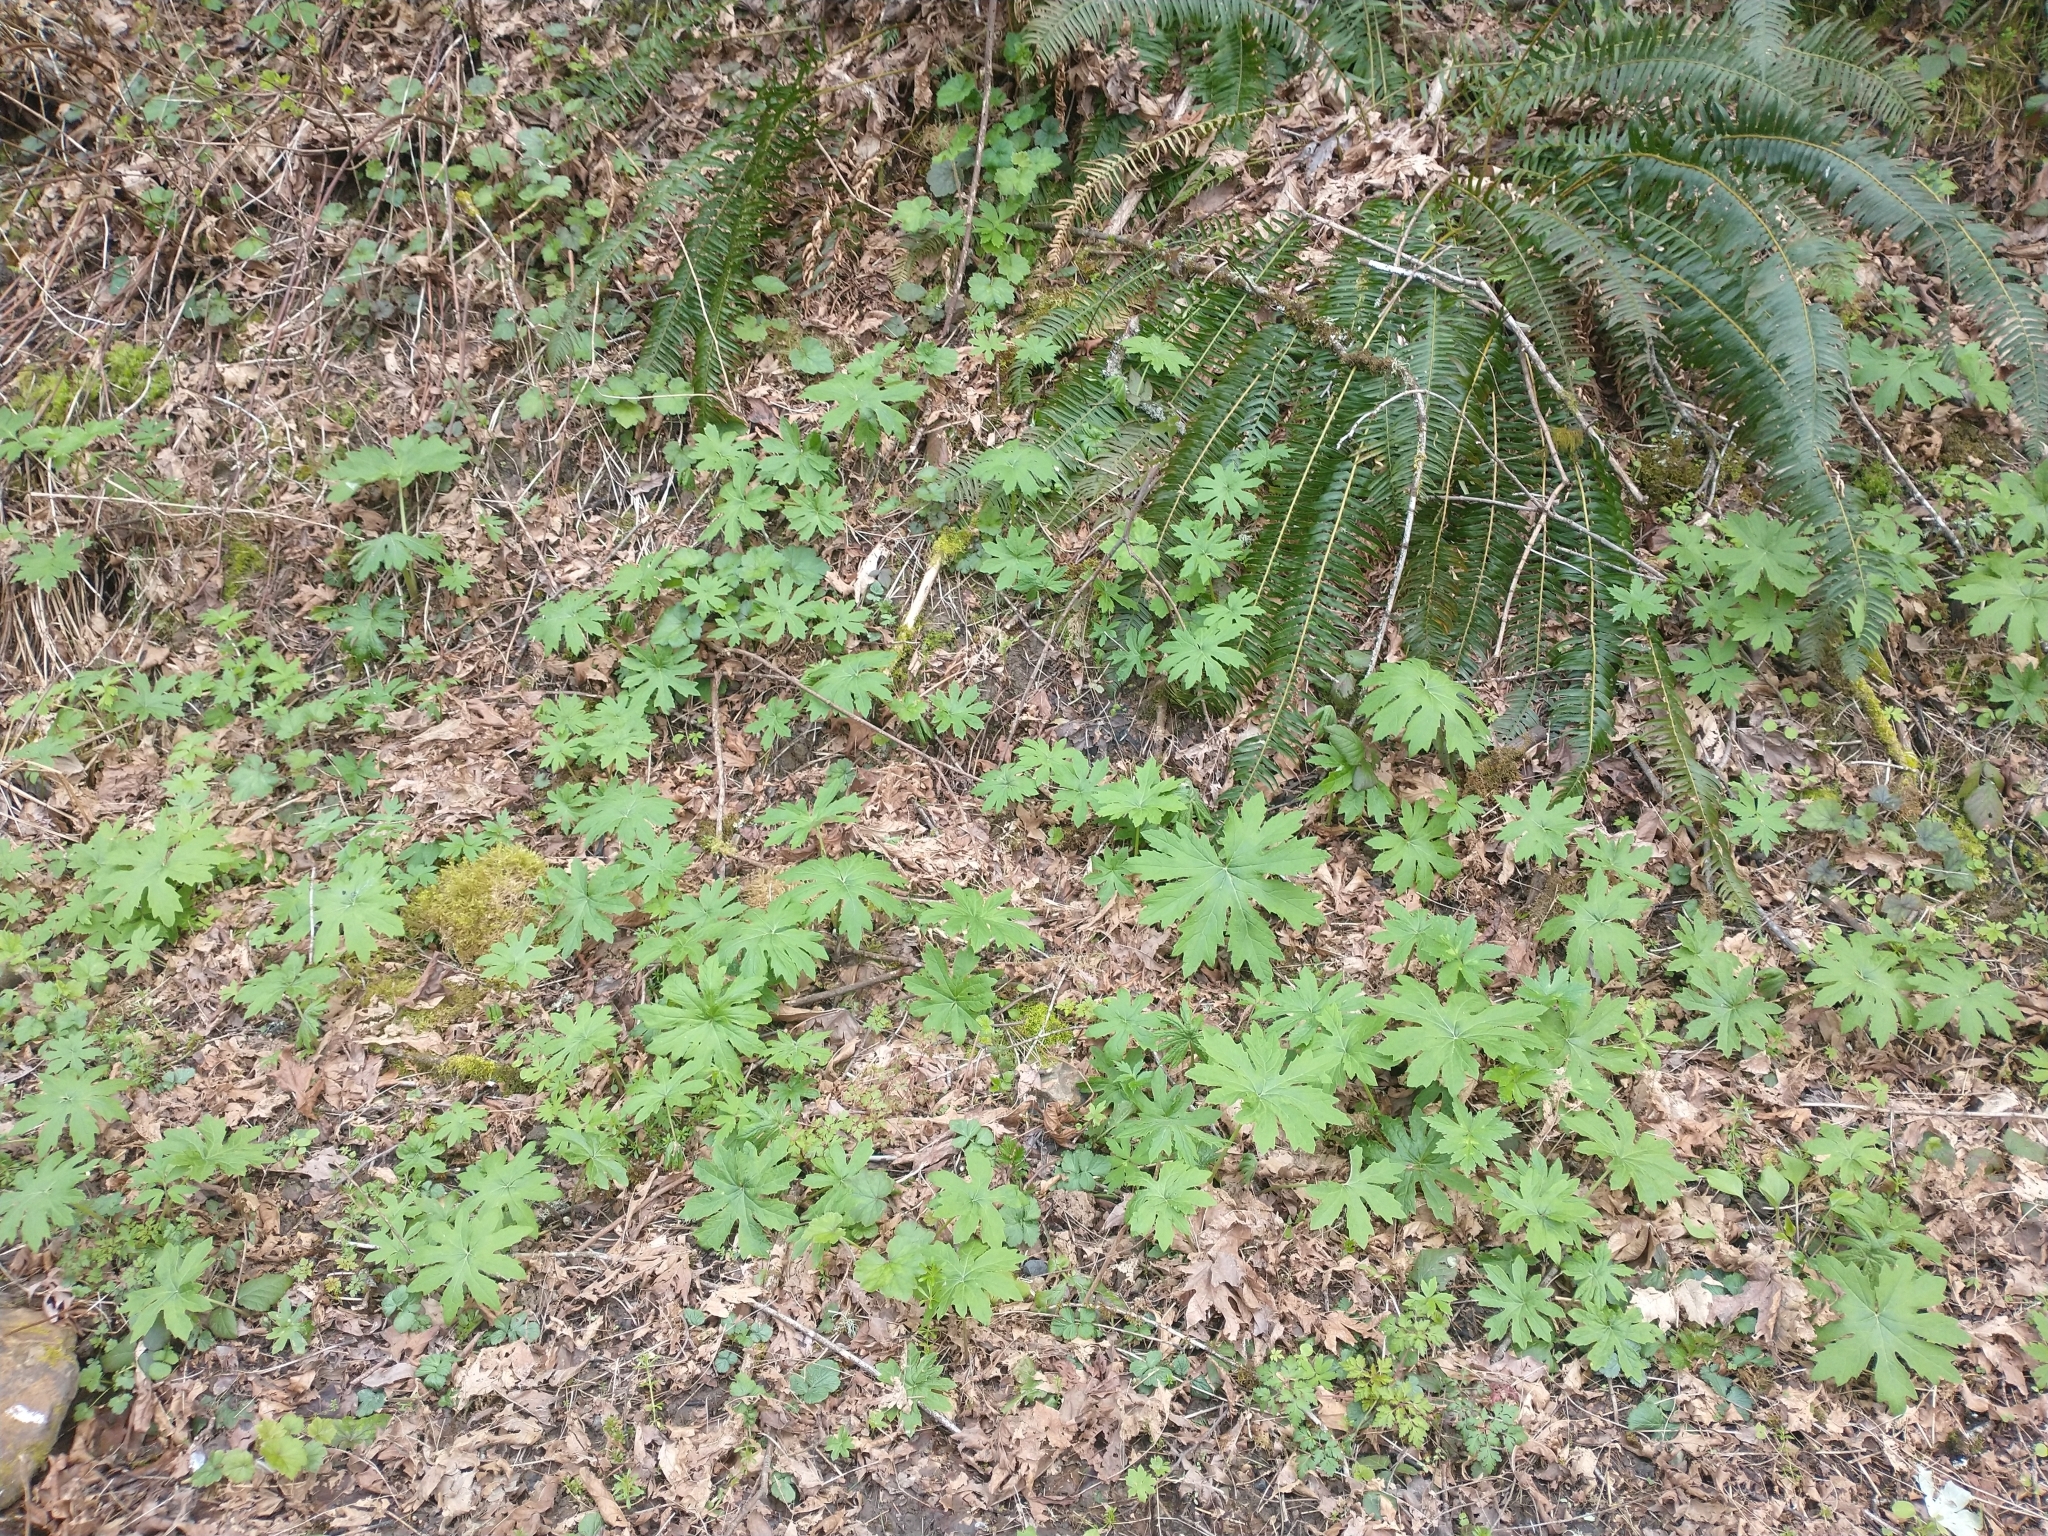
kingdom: Plantae
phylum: Tracheophyta
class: Magnoliopsida
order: Asterales
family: Asteraceae
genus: Petasites
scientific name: Petasites frigidus
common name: Arctic butterbur
